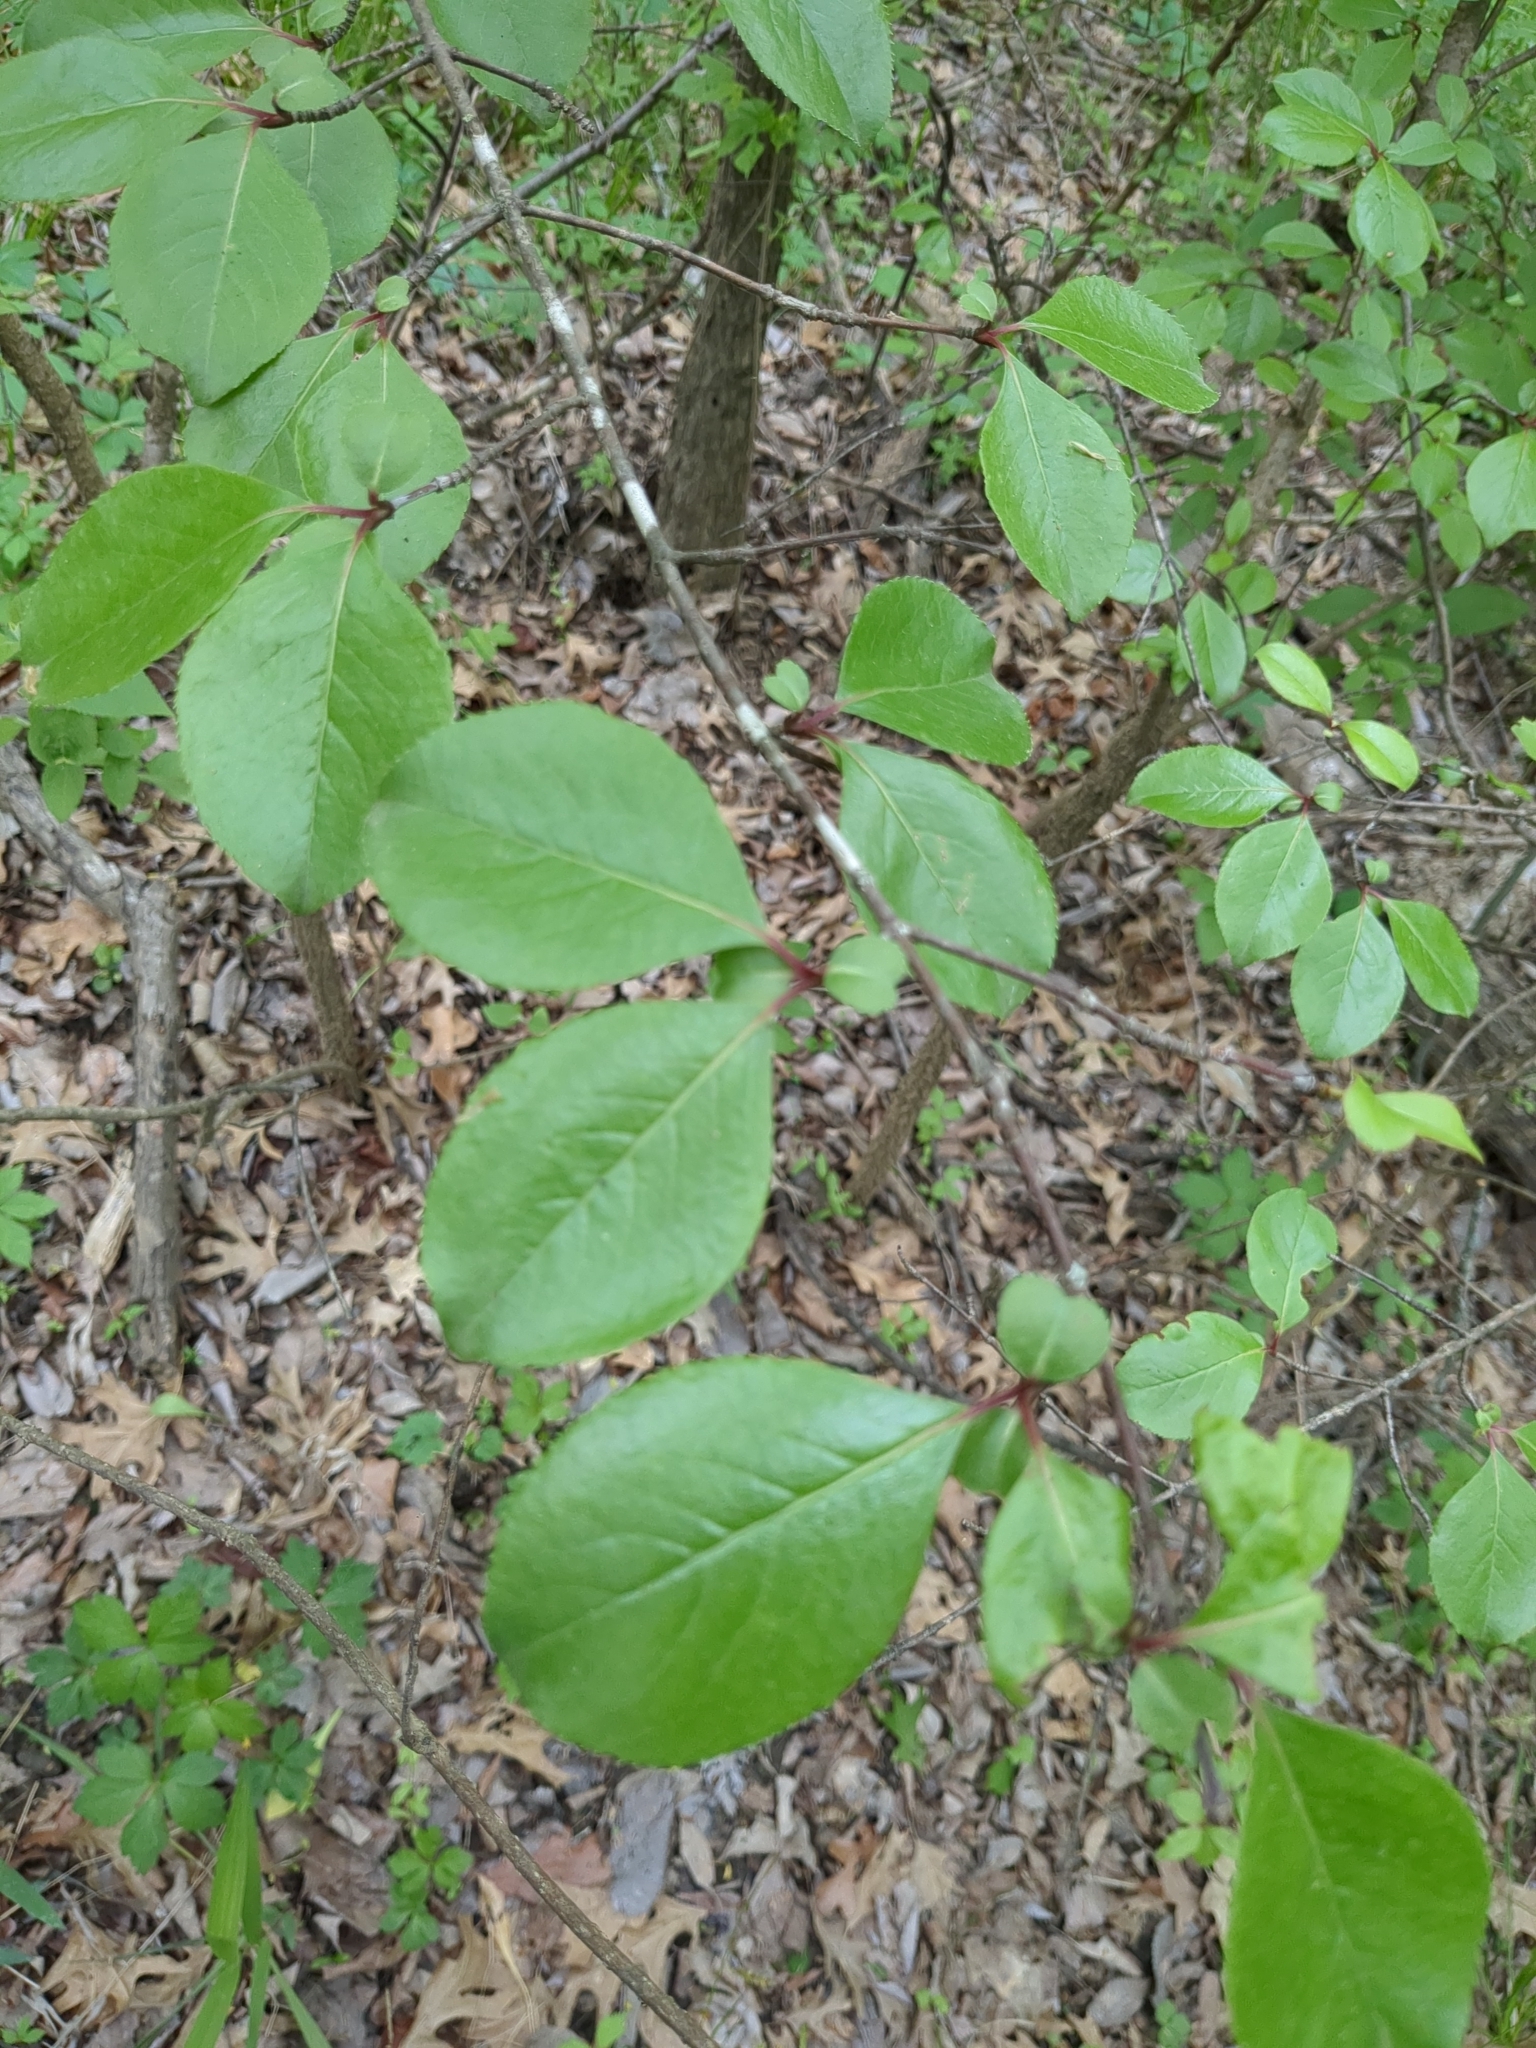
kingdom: Plantae
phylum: Tracheophyta
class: Magnoliopsida
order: Dipsacales
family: Viburnaceae
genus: Viburnum
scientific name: Viburnum rufidulum
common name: Blue haw
